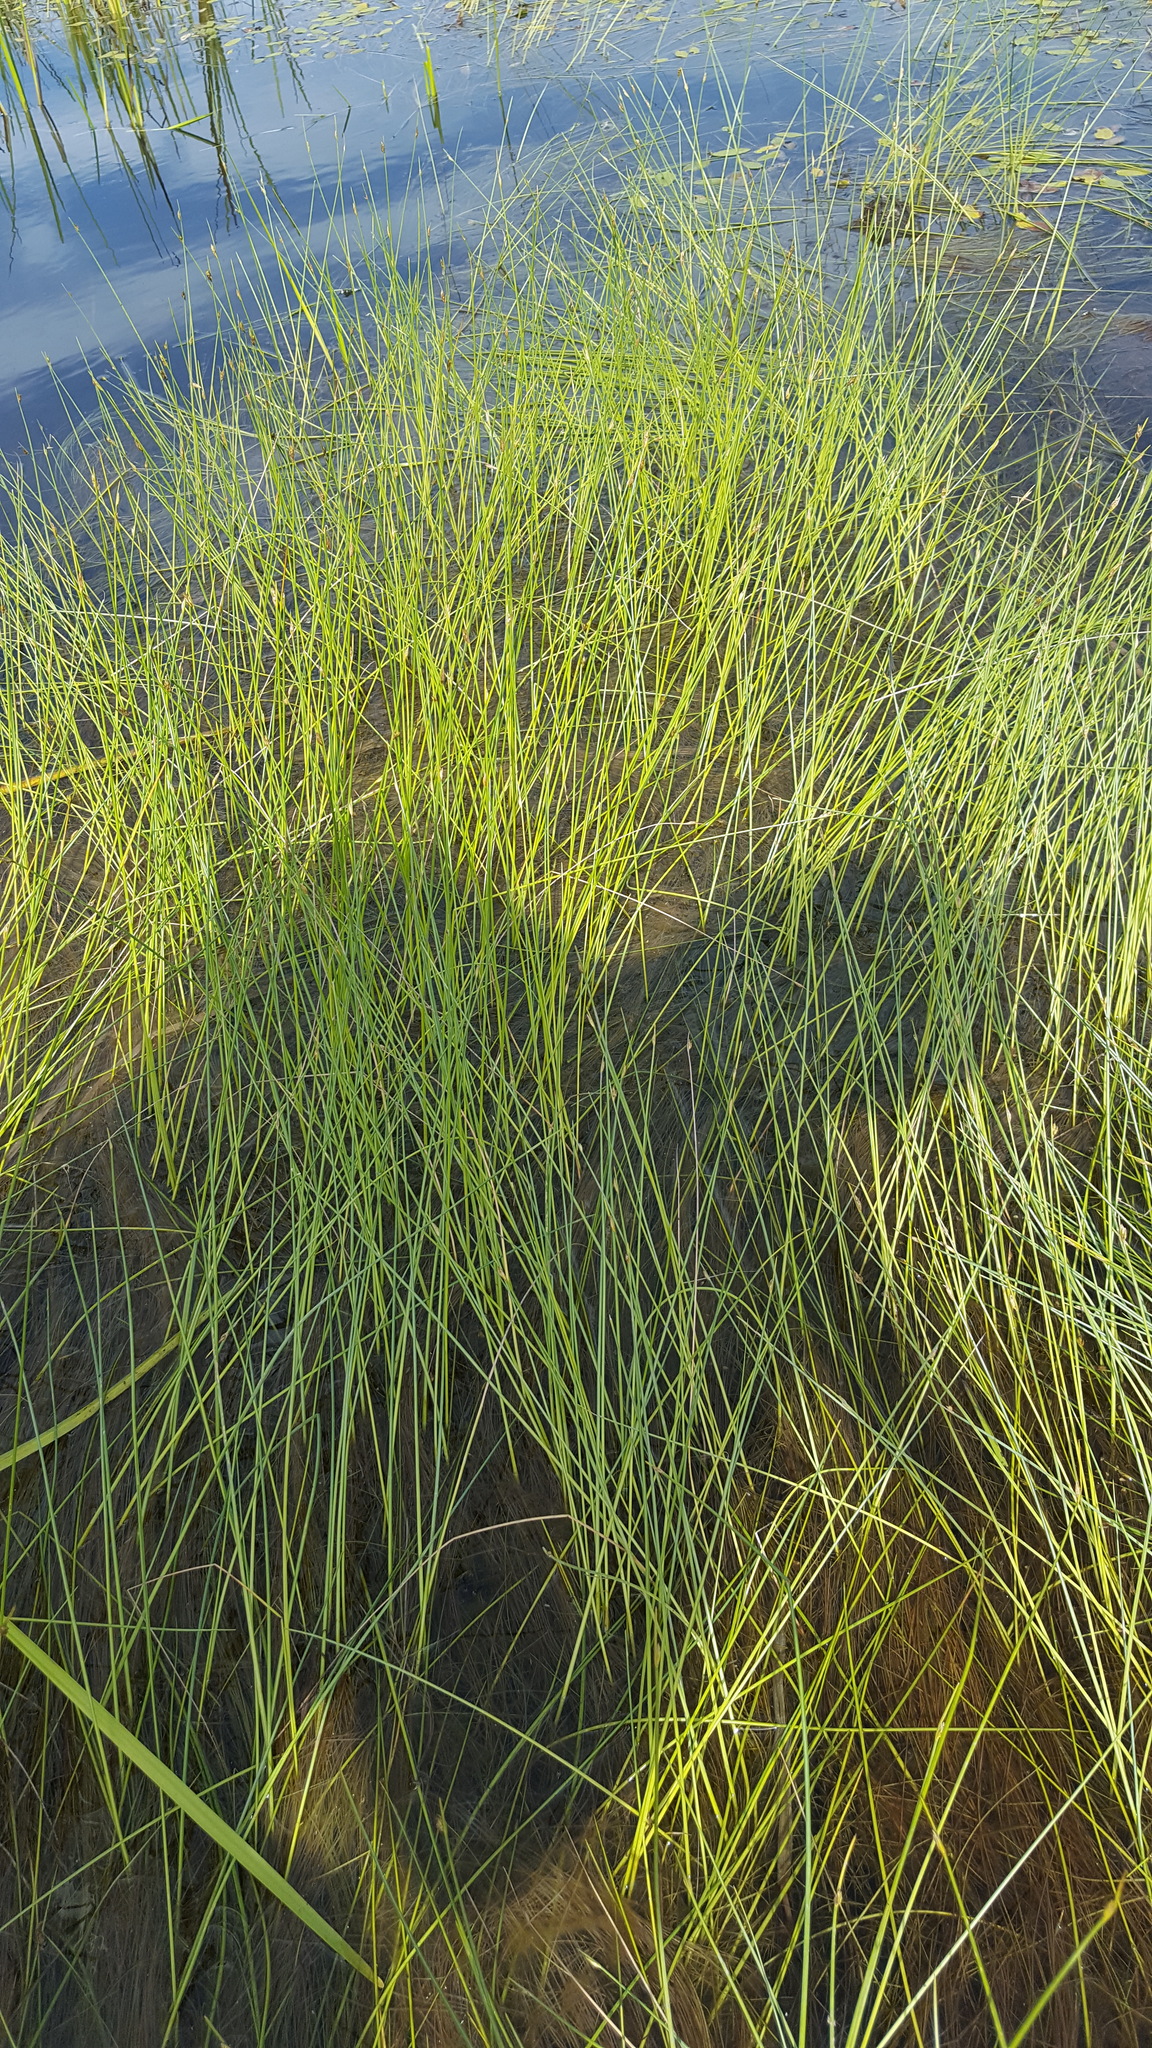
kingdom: Plantae
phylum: Tracheophyta
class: Liliopsida
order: Poales
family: Cyperaceae
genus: Schoenoplectus
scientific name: Schoenoplectus subterminalis
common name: Swaying bulrush
